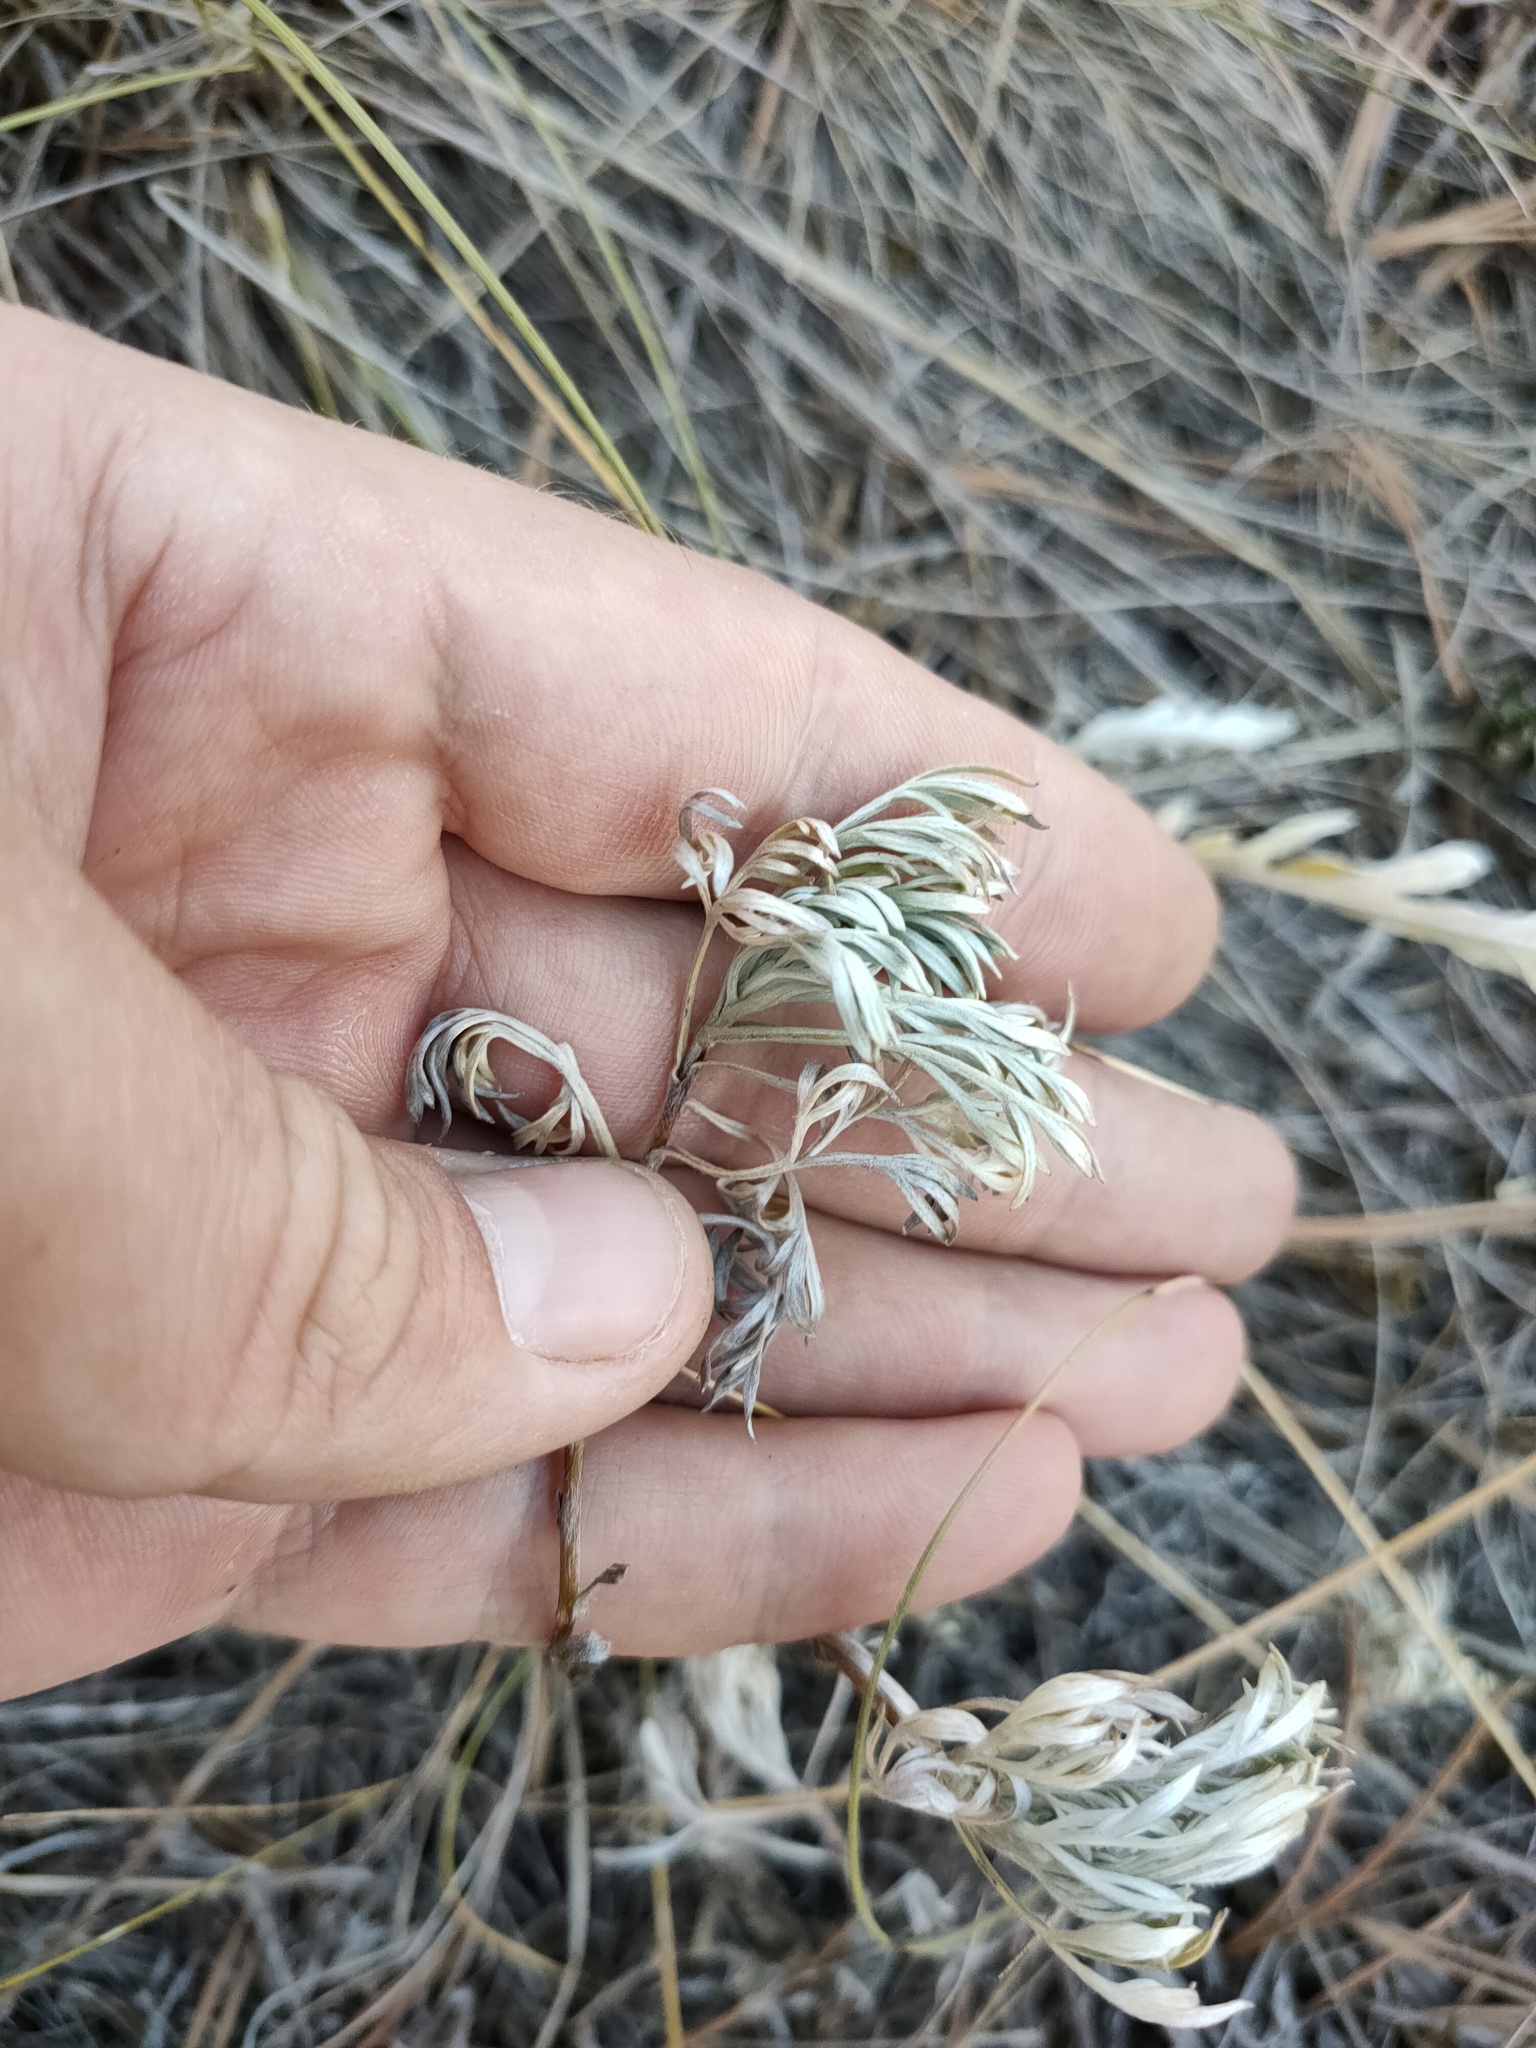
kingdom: Plantae
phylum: Tracheophyta
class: Magnoliopsida
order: Asterales
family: Asteraceae
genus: Artemisia
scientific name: Artemisia sericea
